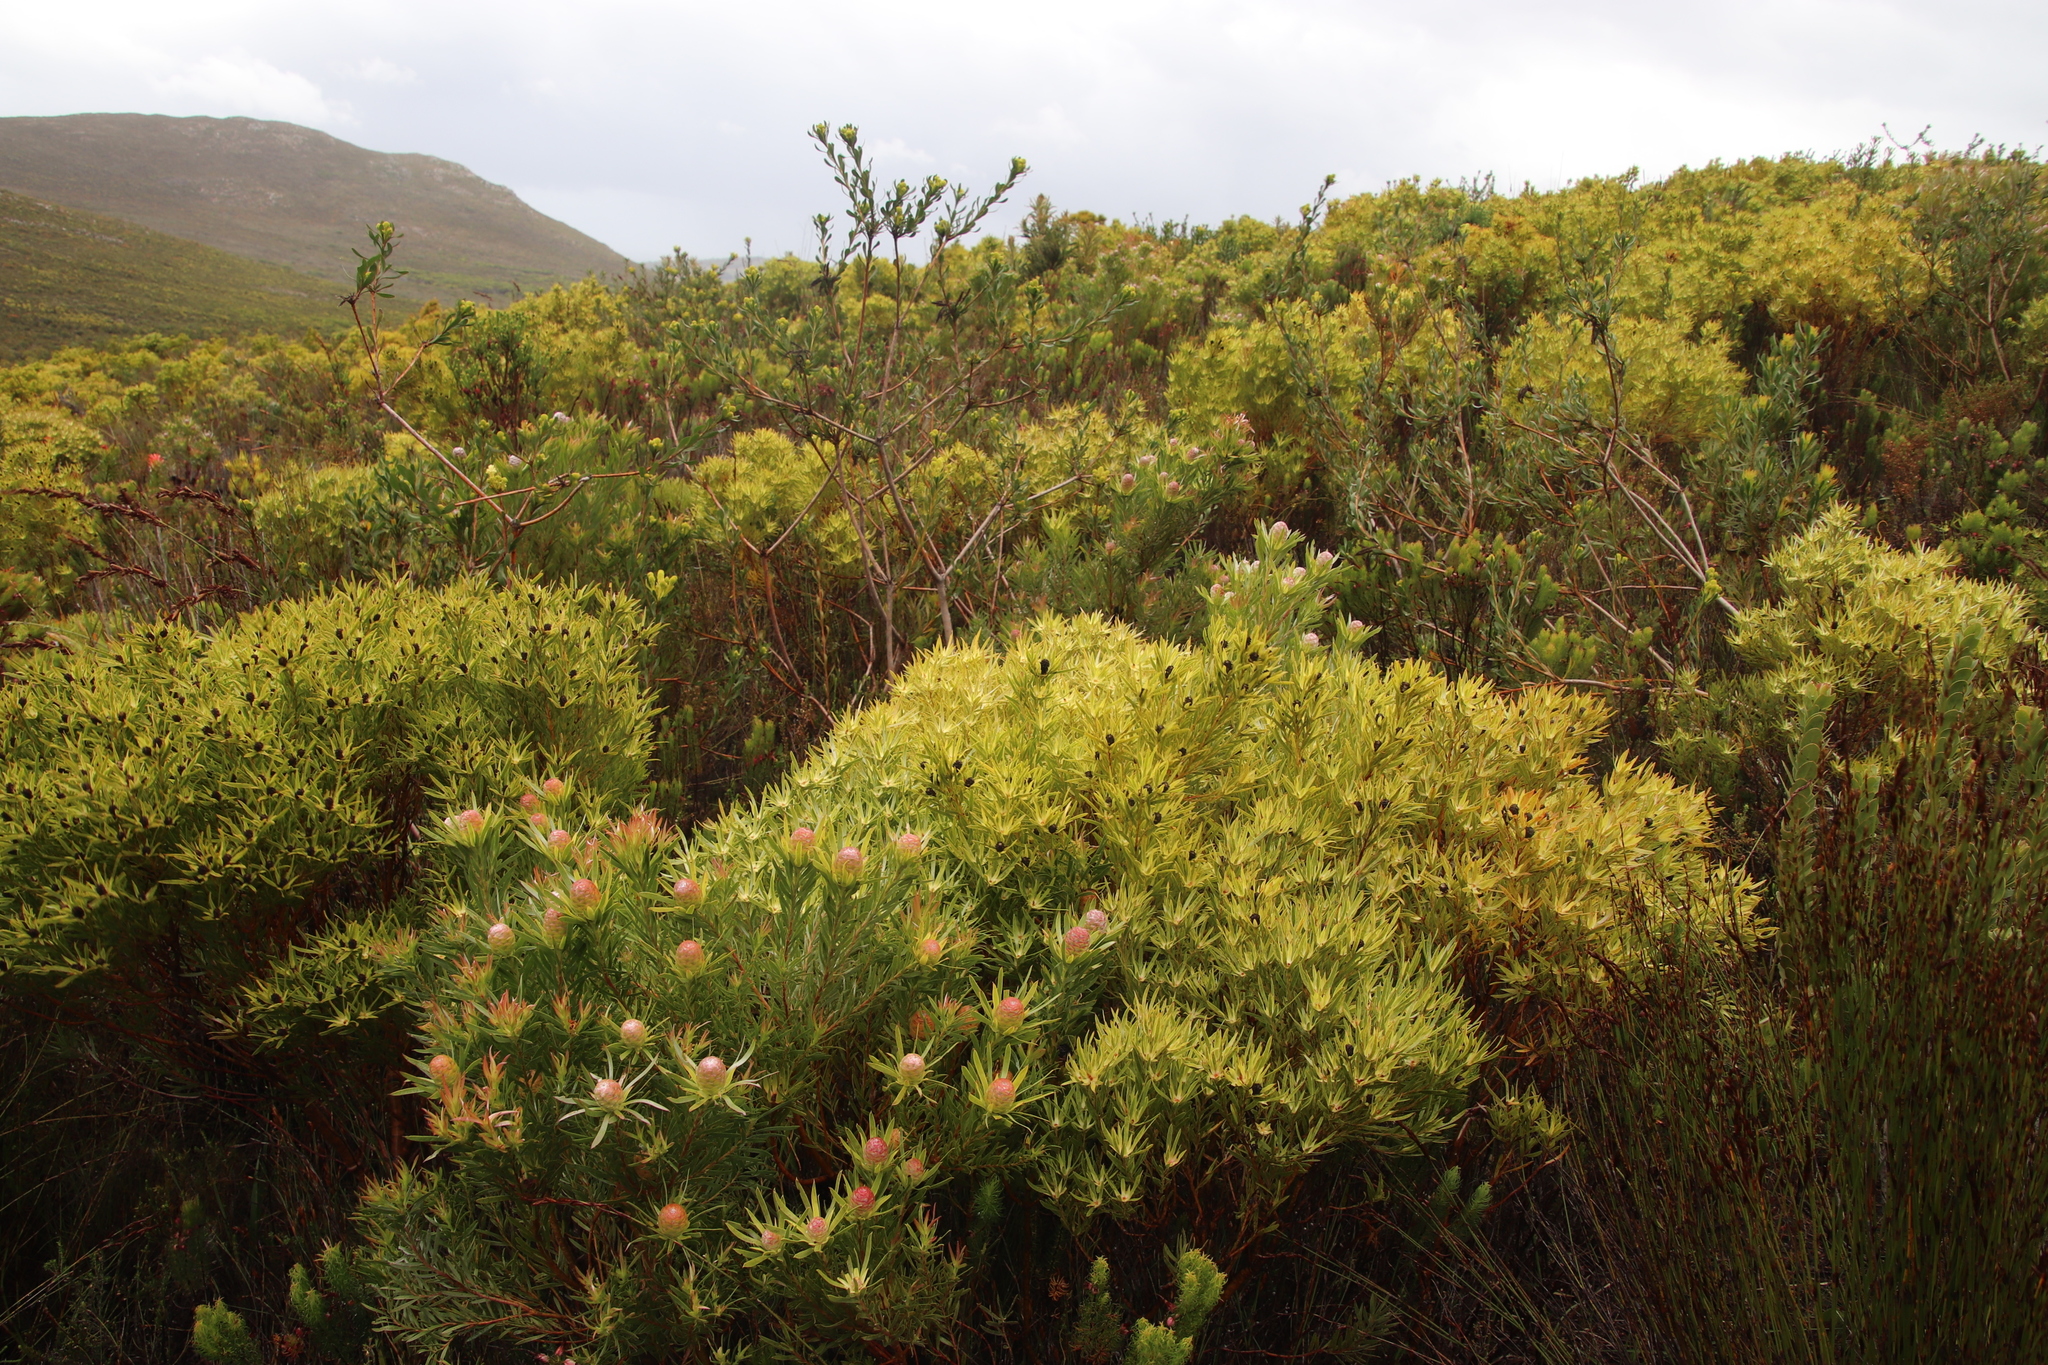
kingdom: Plantae
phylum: Tracheophyta
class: Magnoliopsida
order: Proteales
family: Proteaceae
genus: Leucadendron
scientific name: Leucadendron xanthoconus
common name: Sickle-leaf conebush
